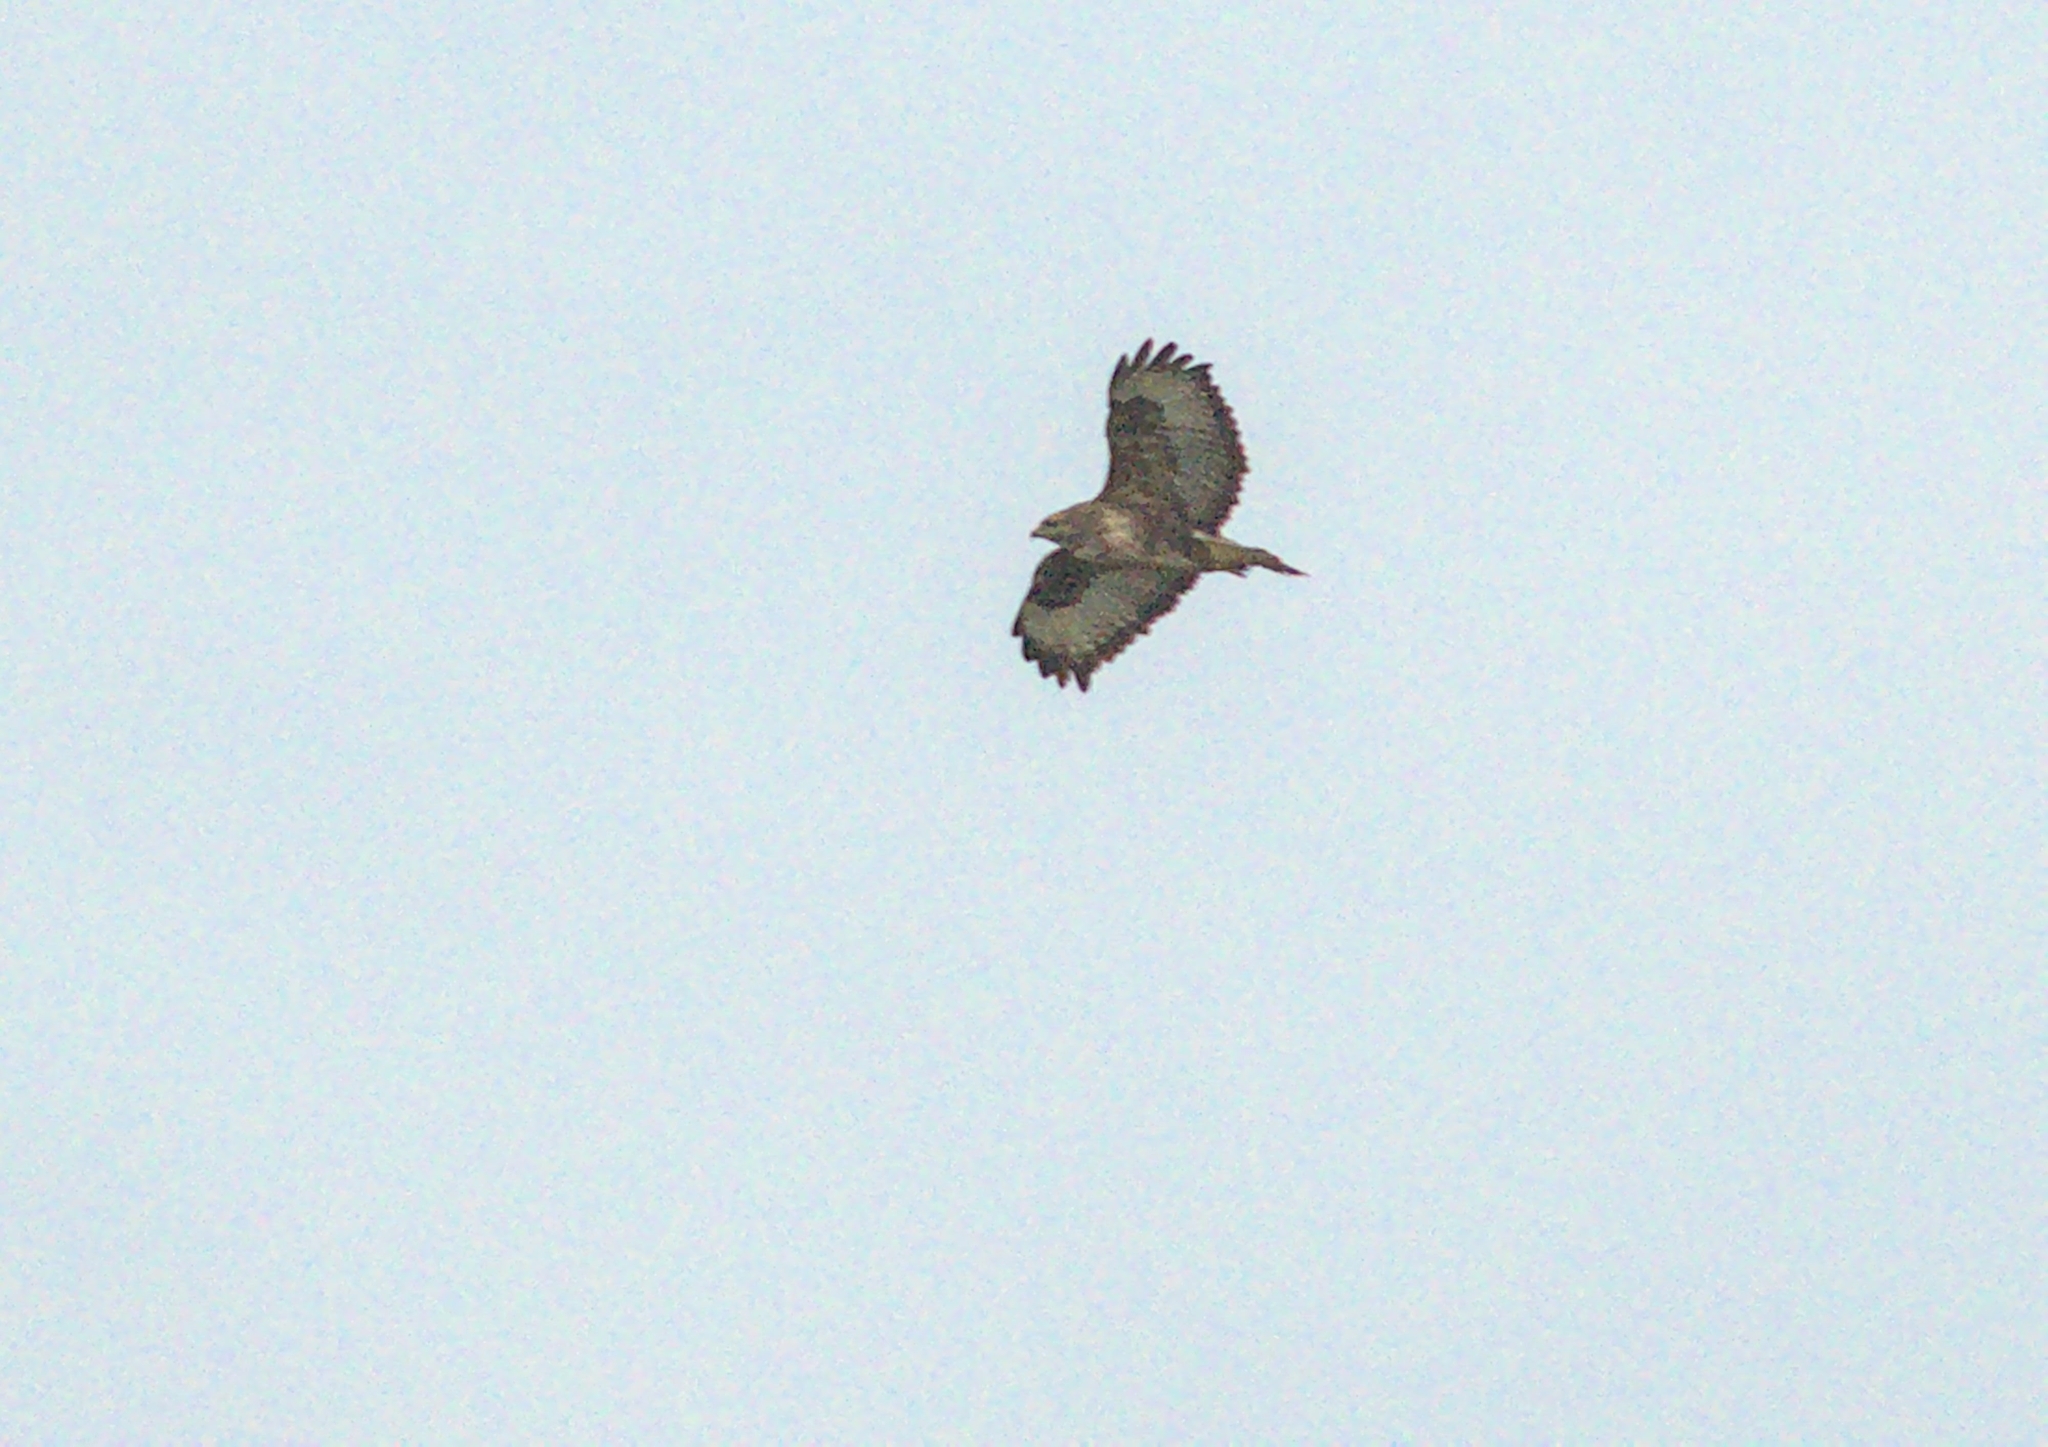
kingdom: Animalia
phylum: Chordata
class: Aves
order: Accipitriformes
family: Accipitridae
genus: Buteo
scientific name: Buteo buteo
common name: Common buzzard
